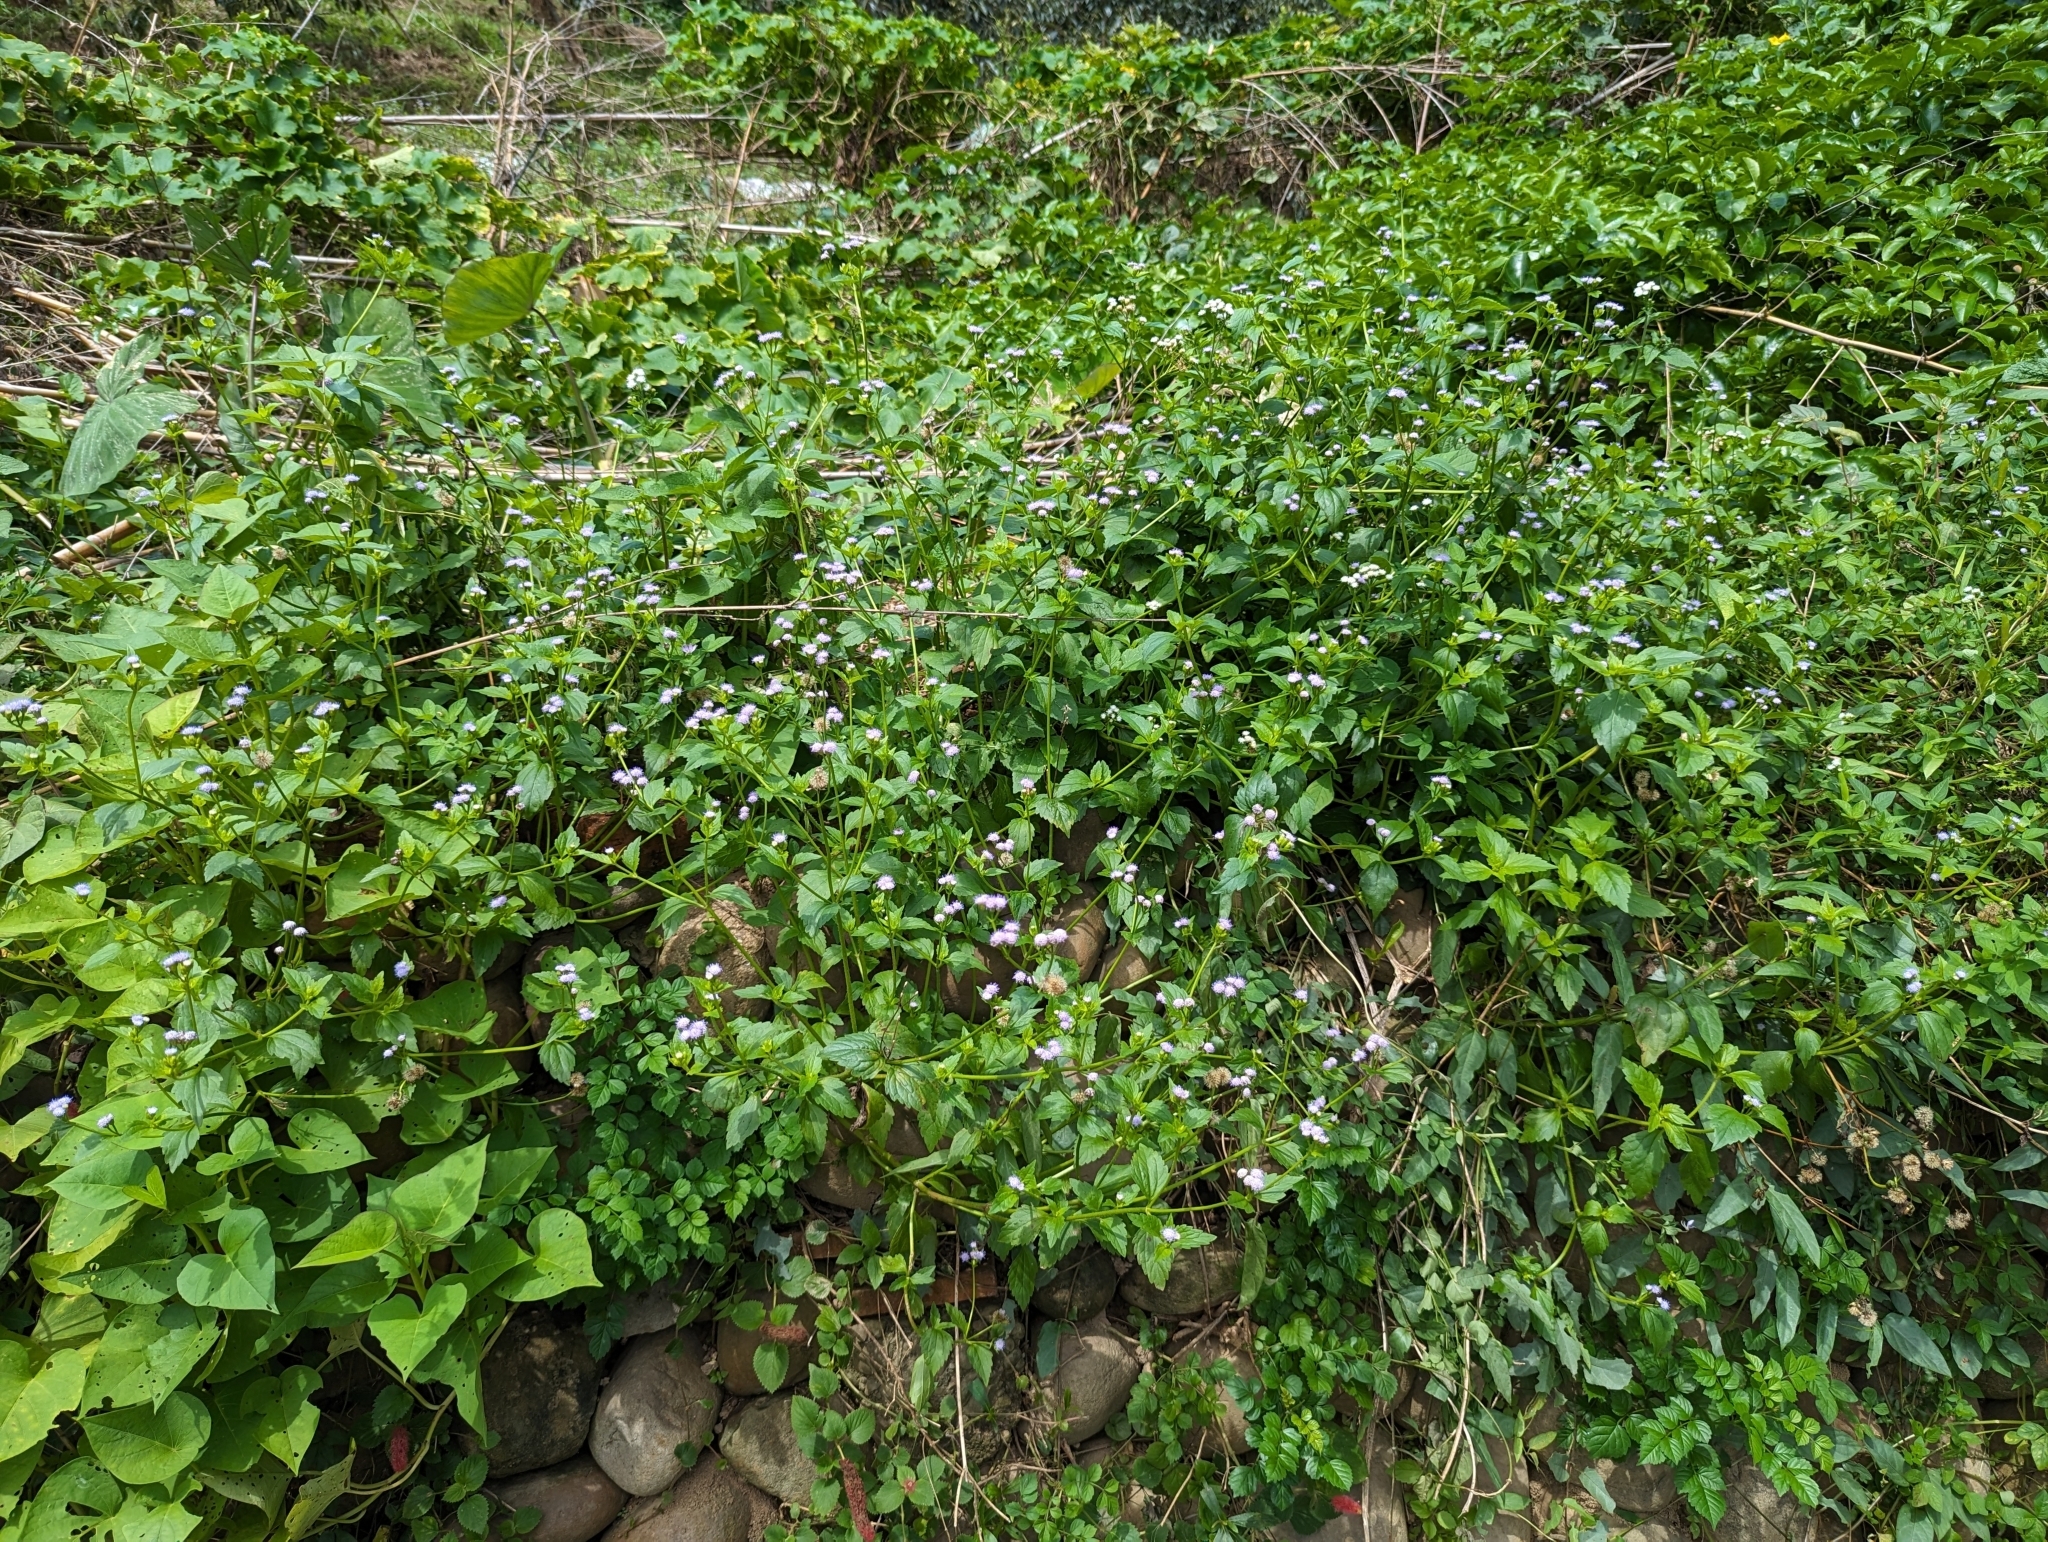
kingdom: Plantae
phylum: Tracheophyta
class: Magnoliopsida
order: Asterales
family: Asteraceae
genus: Praxelis
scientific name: Praxelis clematidea
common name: Praxelis
